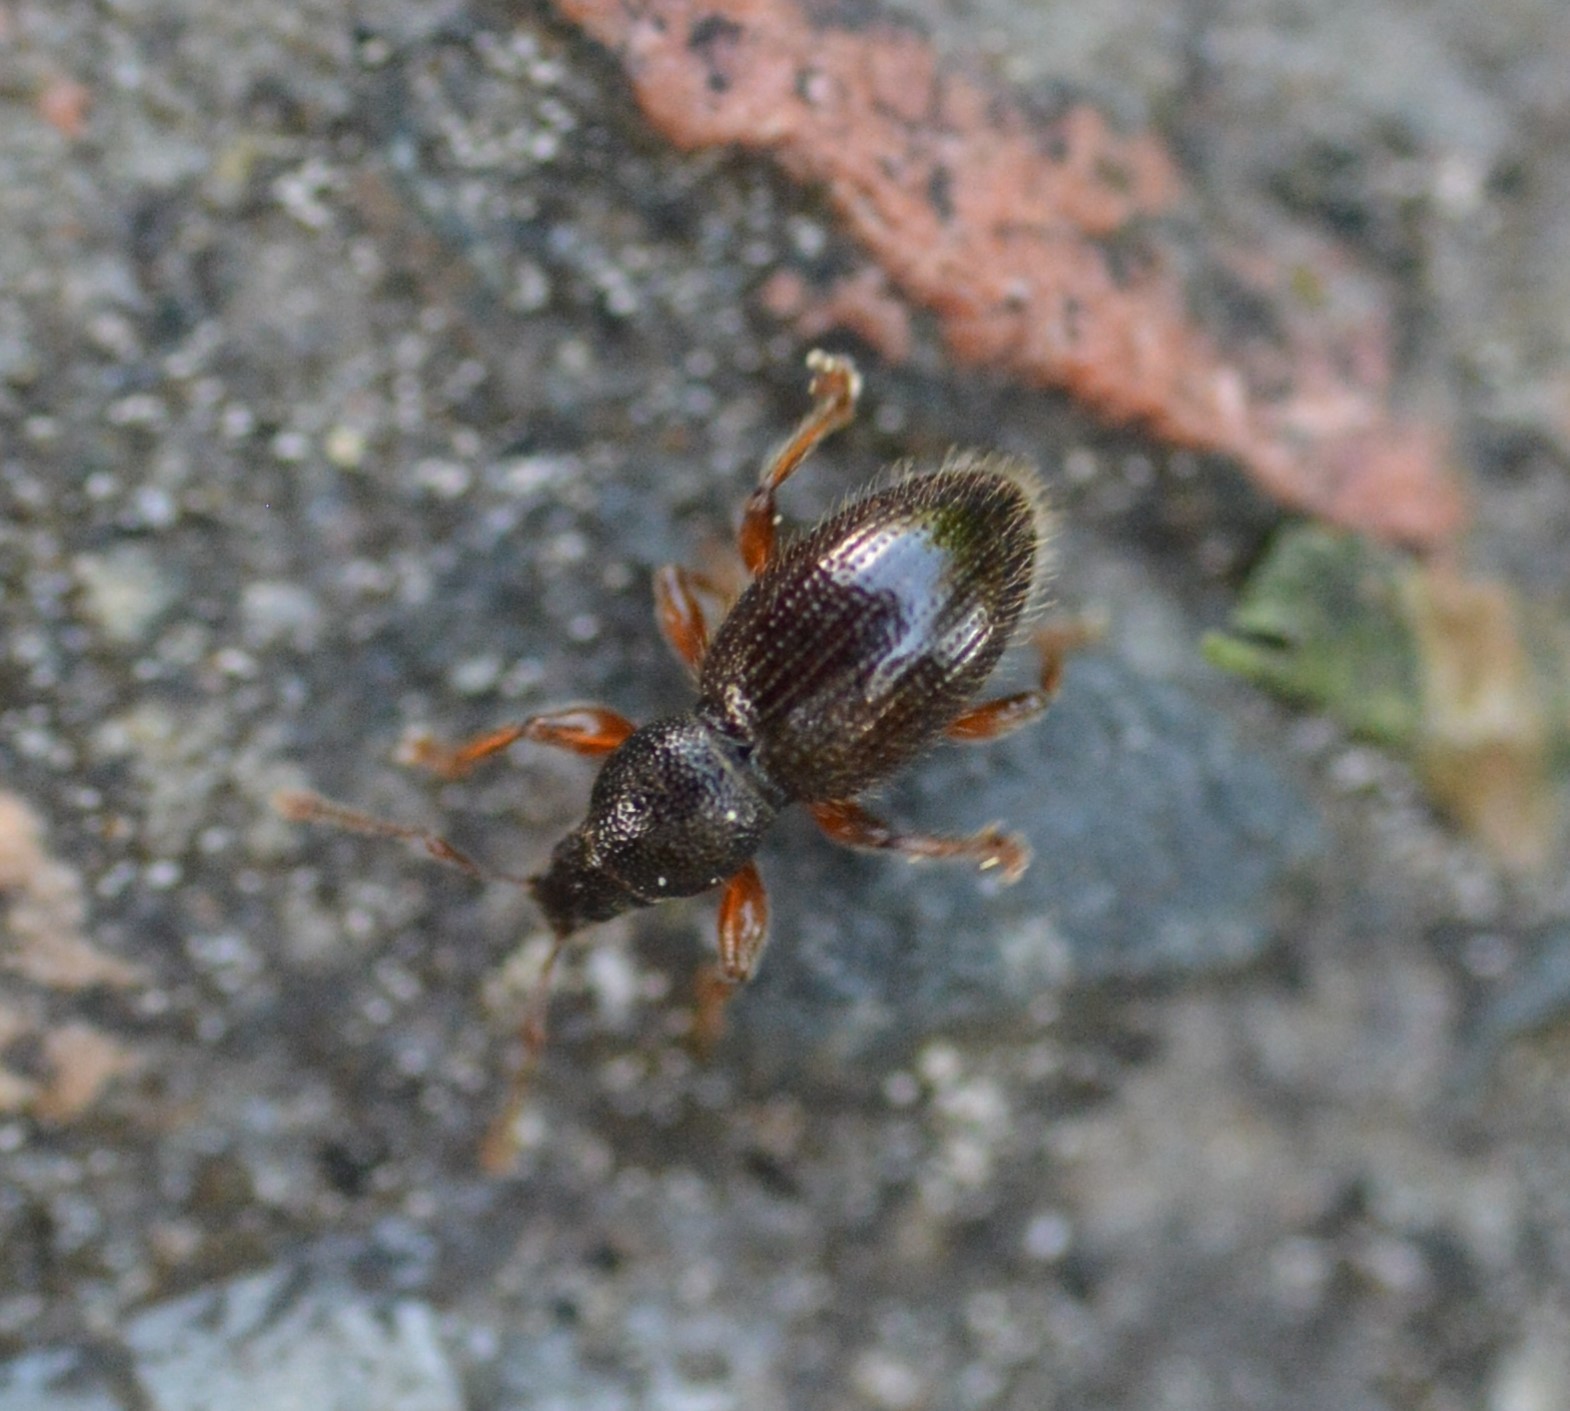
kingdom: Animalia
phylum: Arthropoda
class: Insecta
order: Coleoptera
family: Curculionidae
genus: Exomias
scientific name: Exomias pellucidus
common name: Hairy spider weevil
